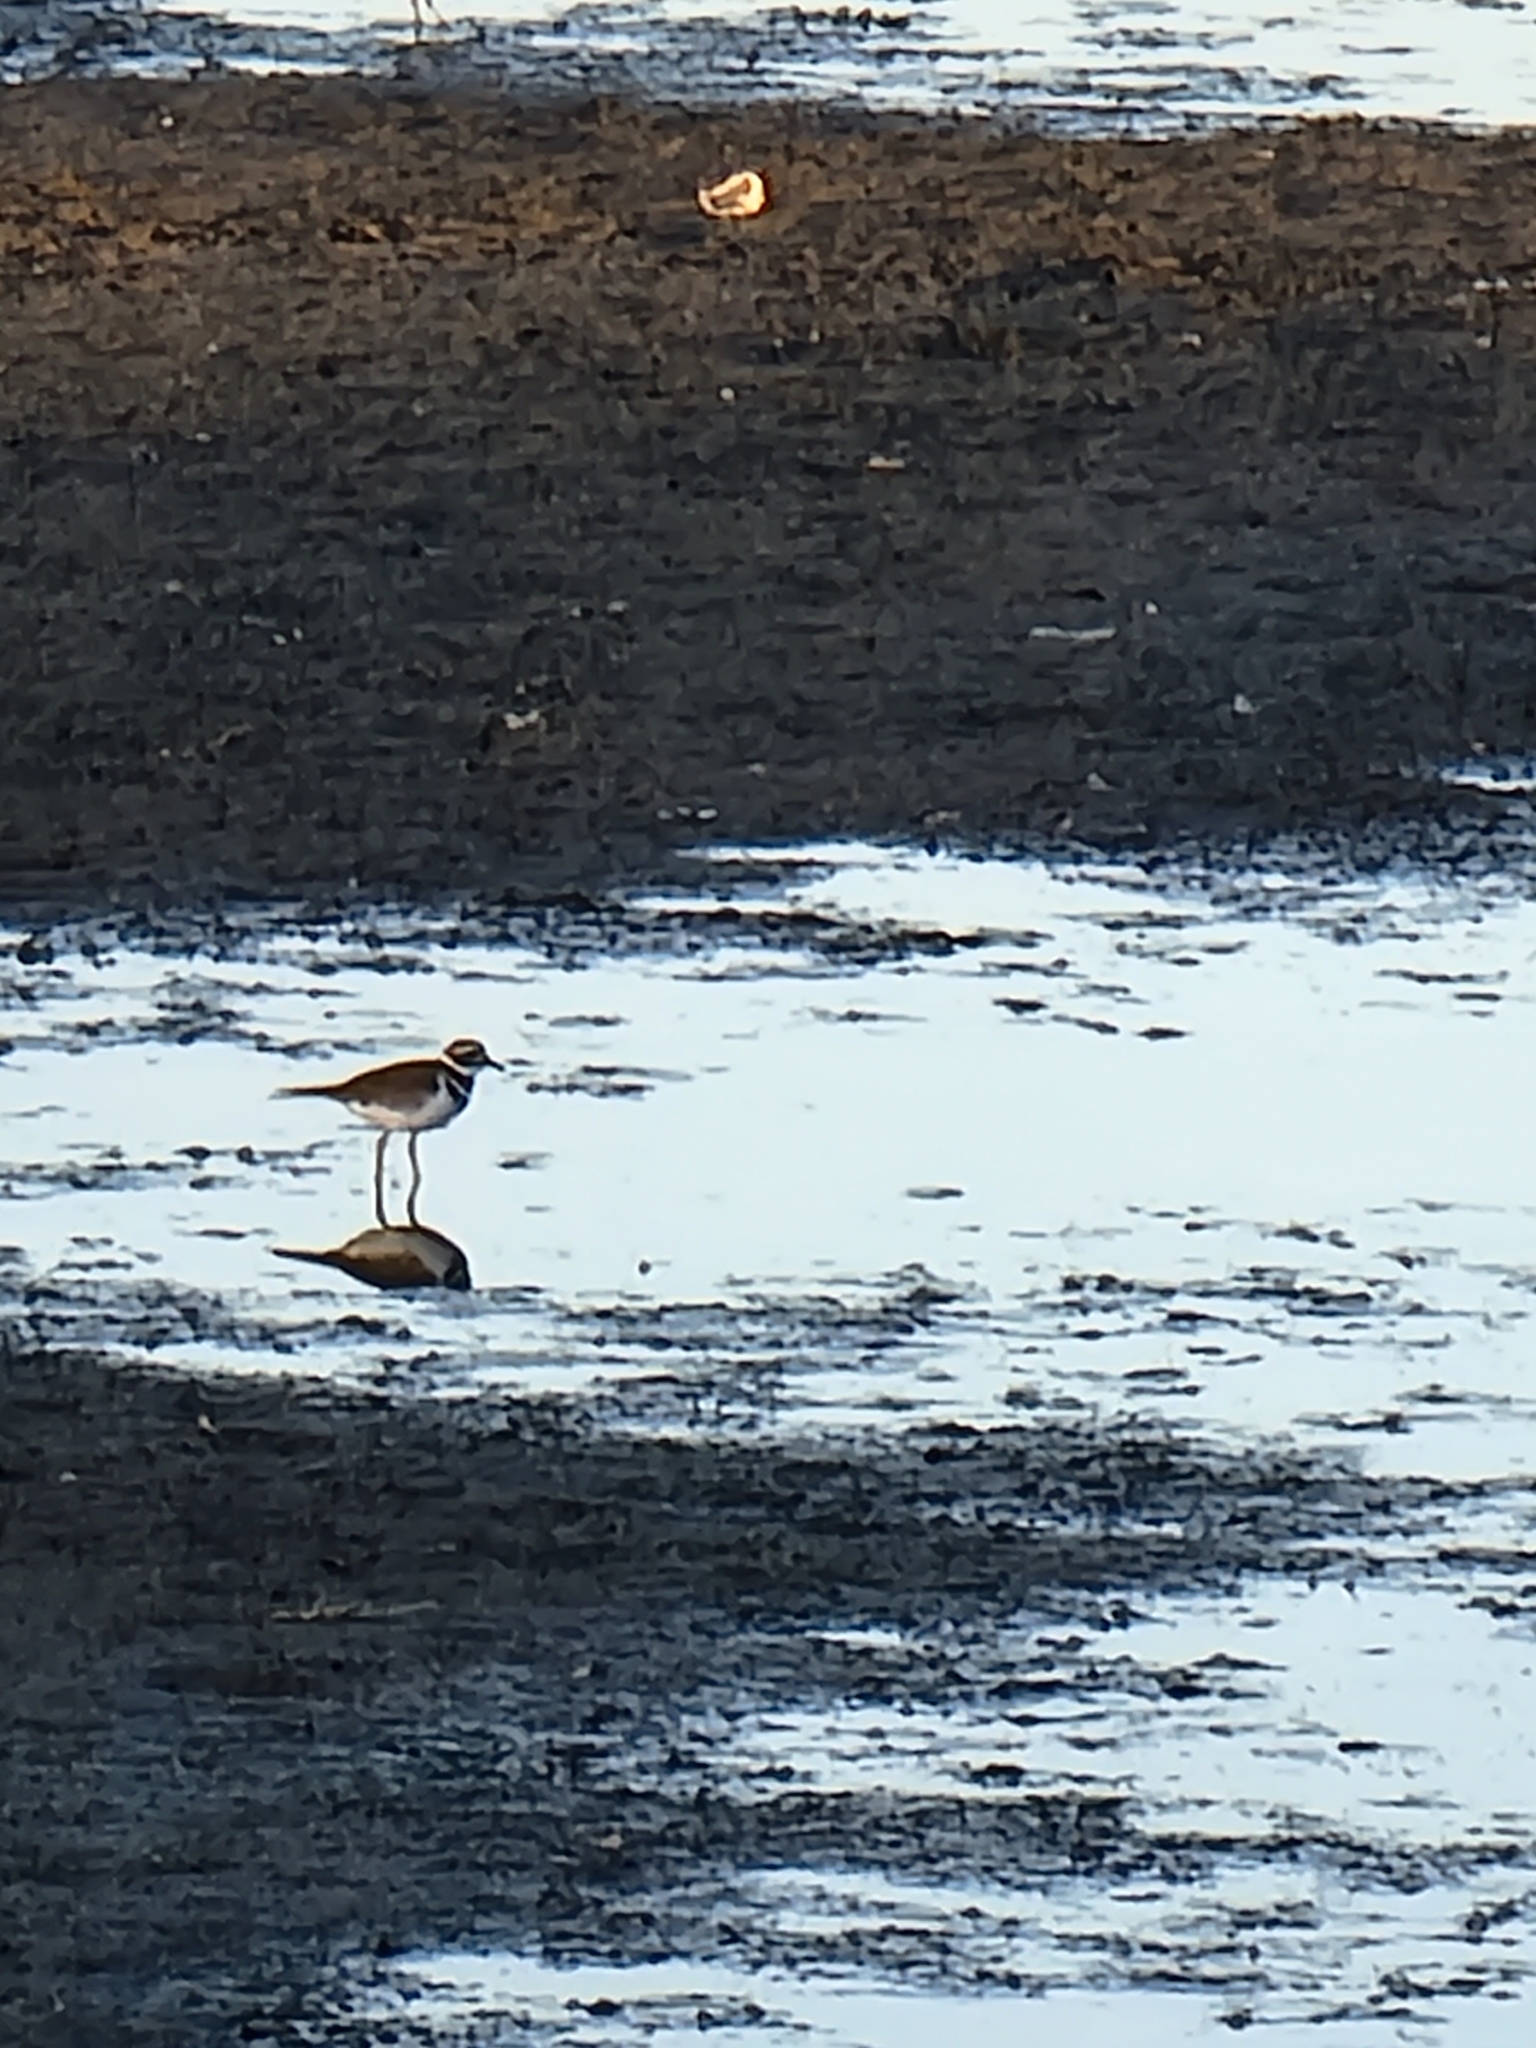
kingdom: Animalia
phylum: Chordata
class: Aves
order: Charadriiformes
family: Charadriidae
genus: Charadrius
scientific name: Charadrius vociferus
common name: Killdeer
